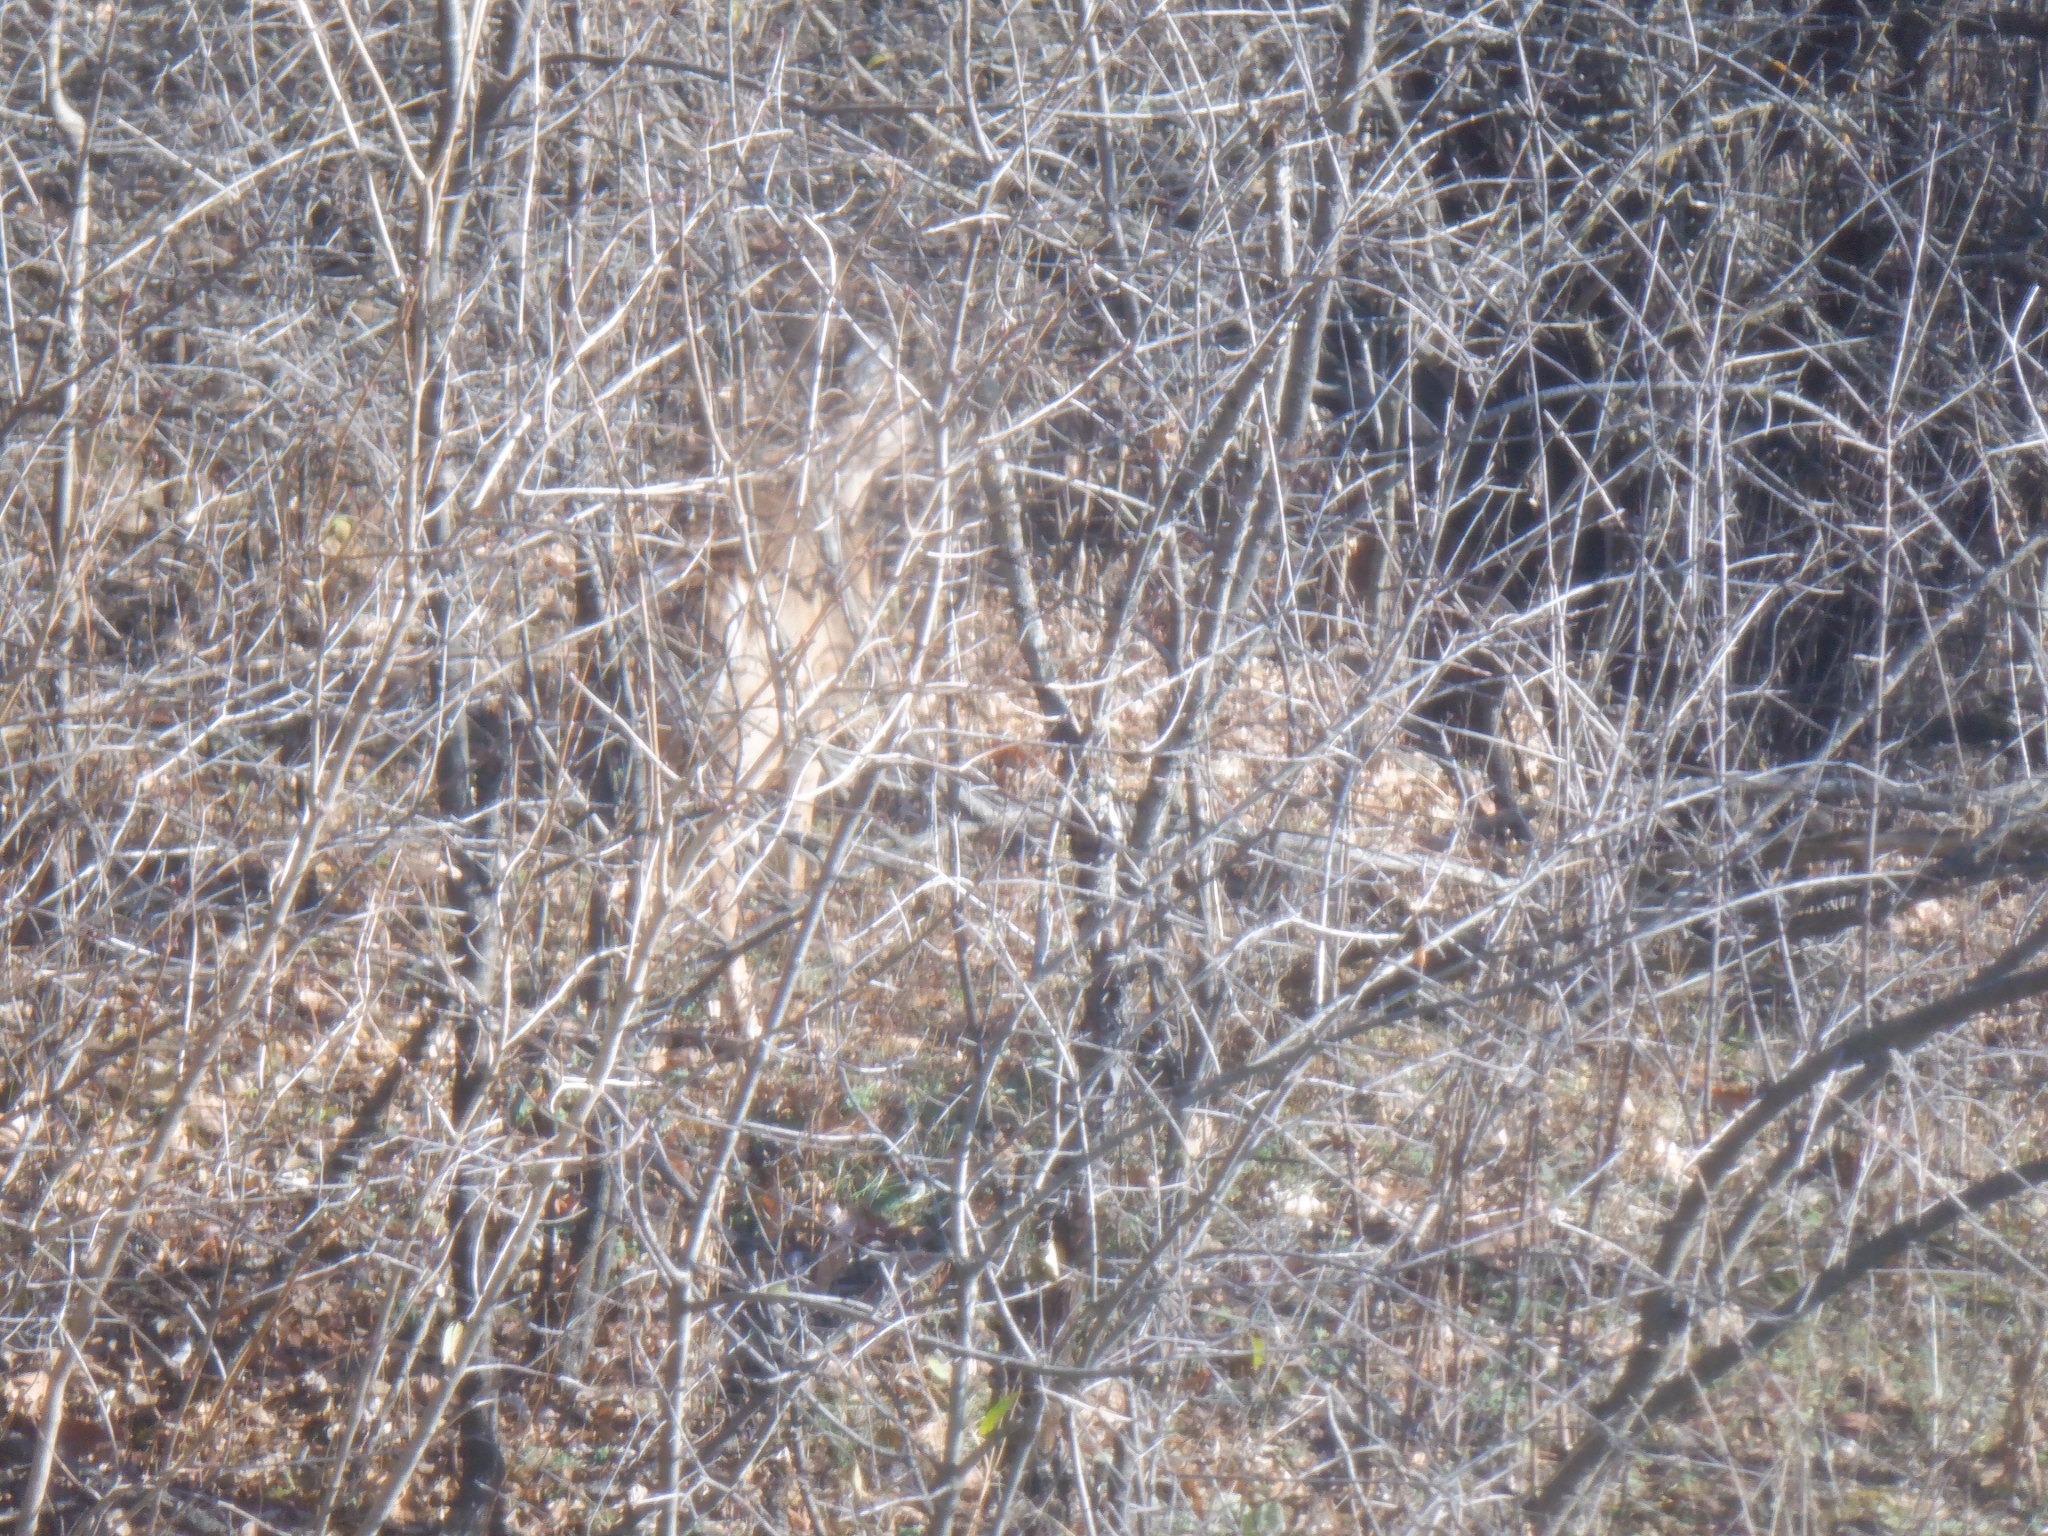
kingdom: Animalia
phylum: Chordata
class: Mammalia
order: Artiodactyla
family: Cervidae
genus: Odocoileus
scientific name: Odocoileus virginianus
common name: White-tailed deer
